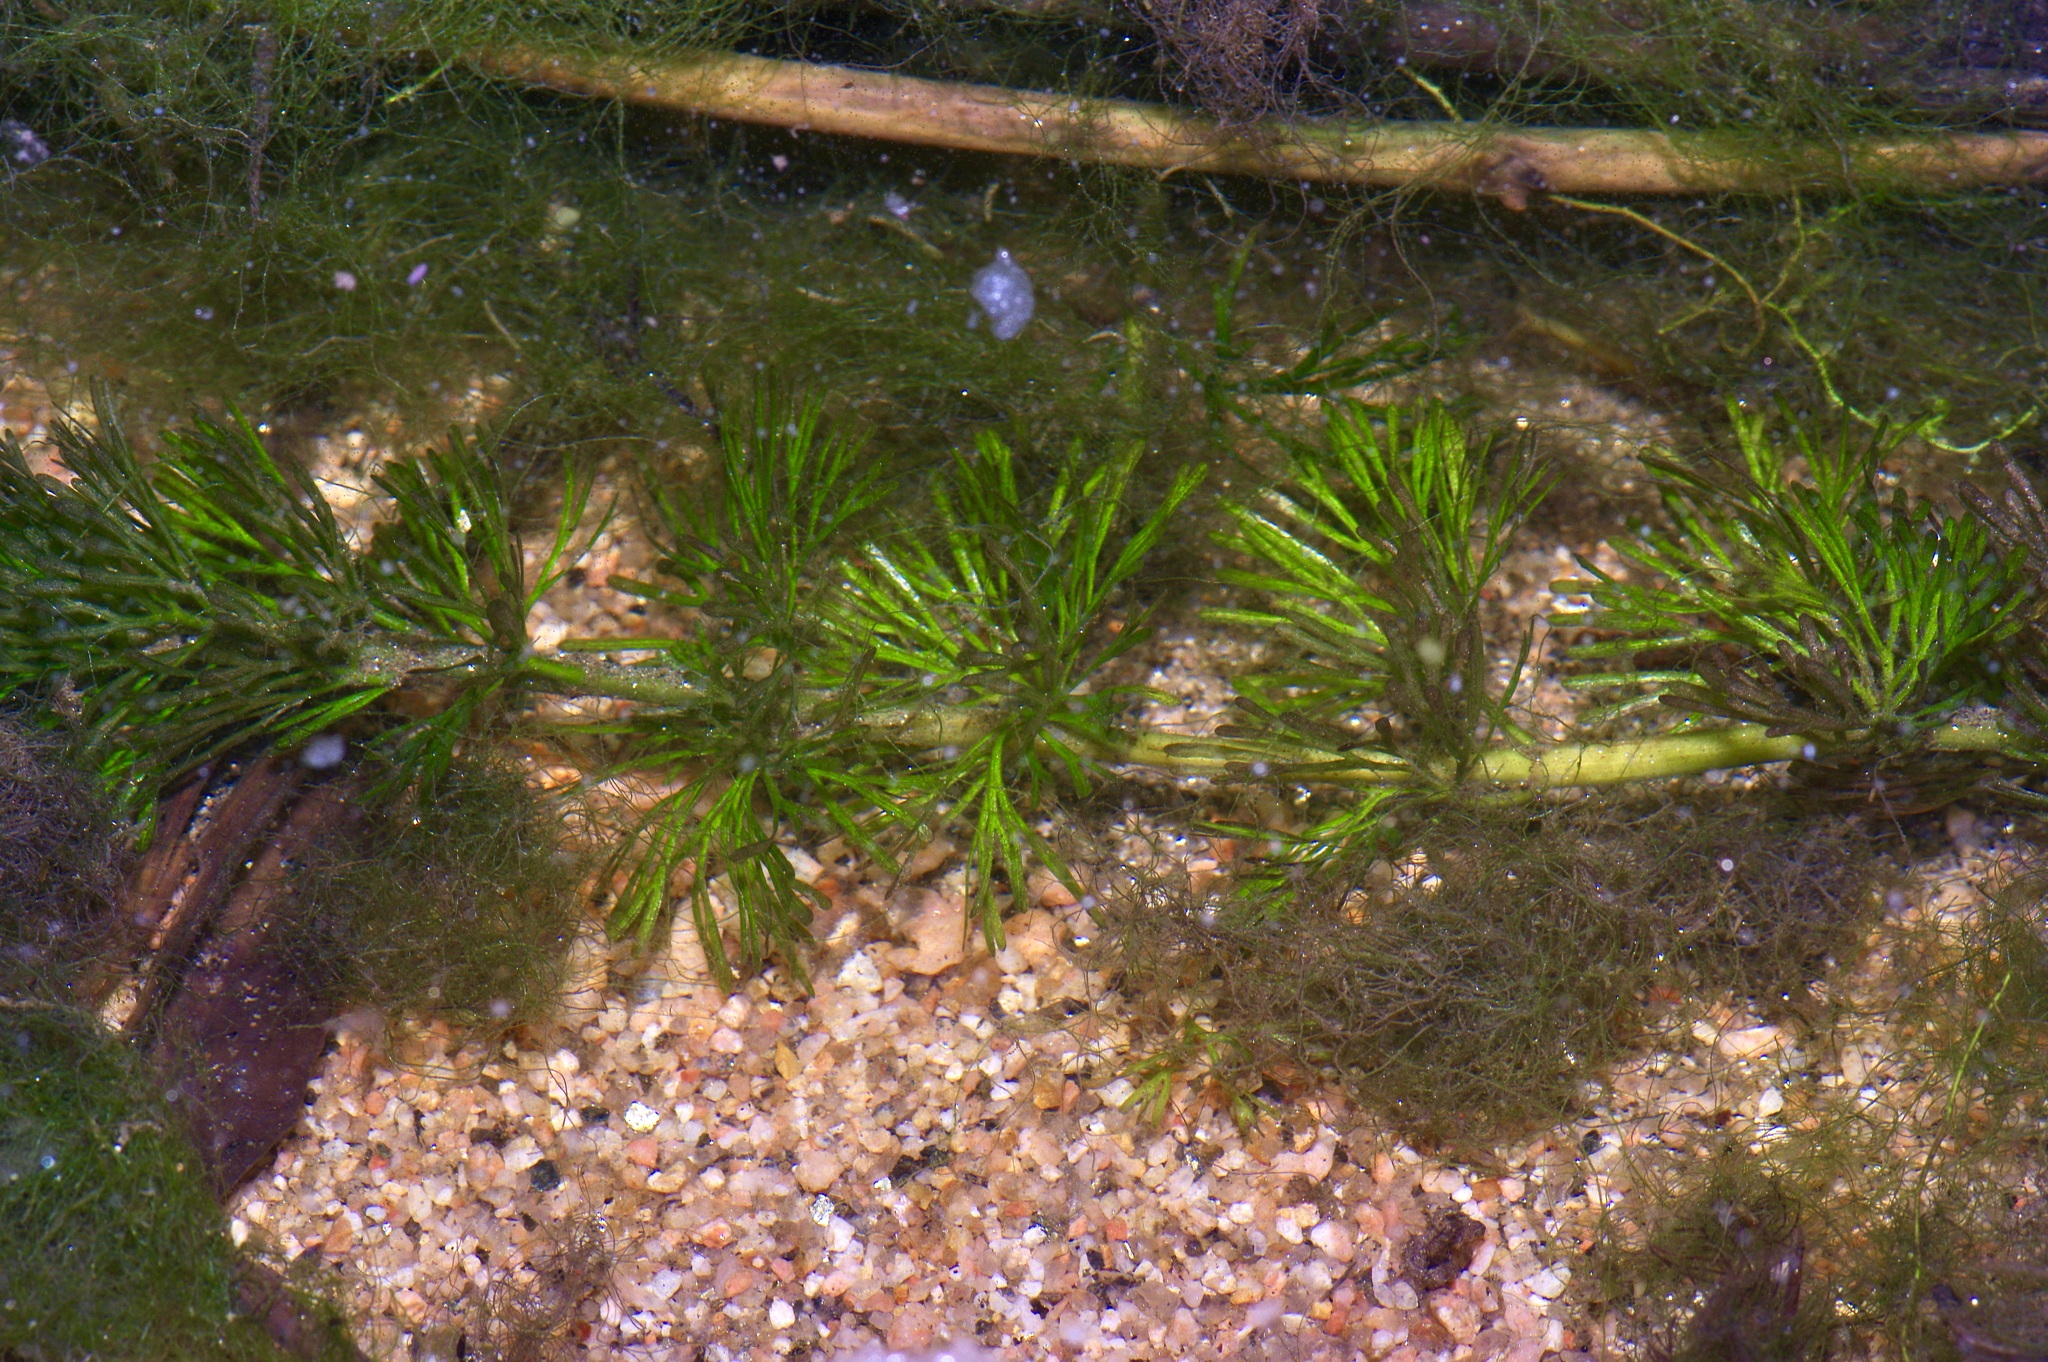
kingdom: Plantae
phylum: Tracheophyta
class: Magnoliopsida
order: Nymphaeales
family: Cabombaceae
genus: Cabomba
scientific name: Cabomba caroliniana
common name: Fanwort
